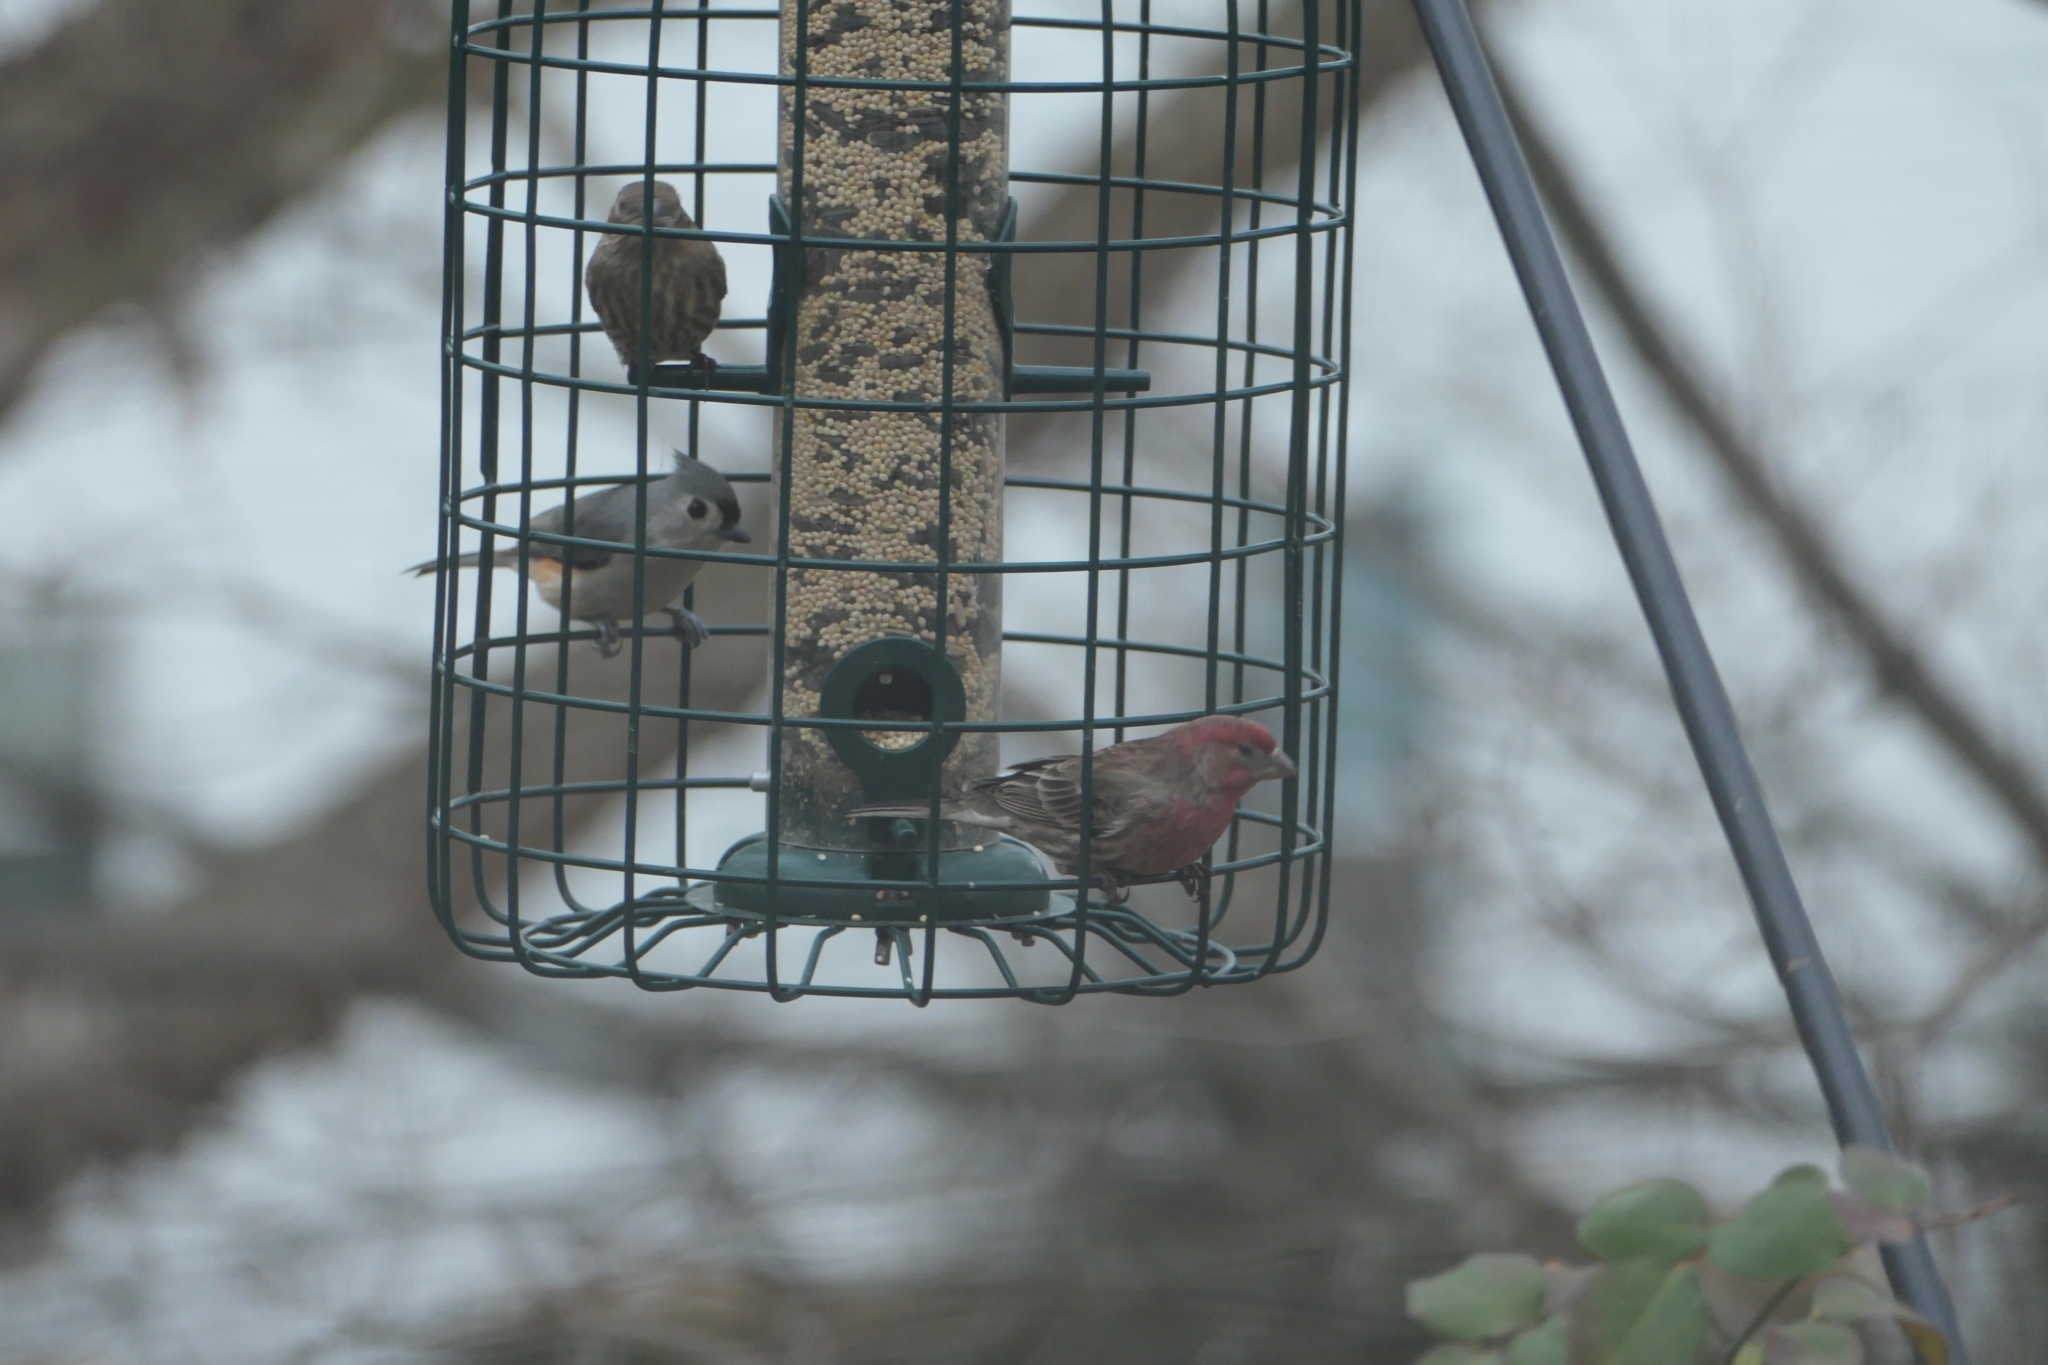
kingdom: Animalia
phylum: Chordata
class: Aves
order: Passeriformes
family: Paridae
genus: Baeolophus
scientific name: Baeolophus bicolor
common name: Tufted titmouse
